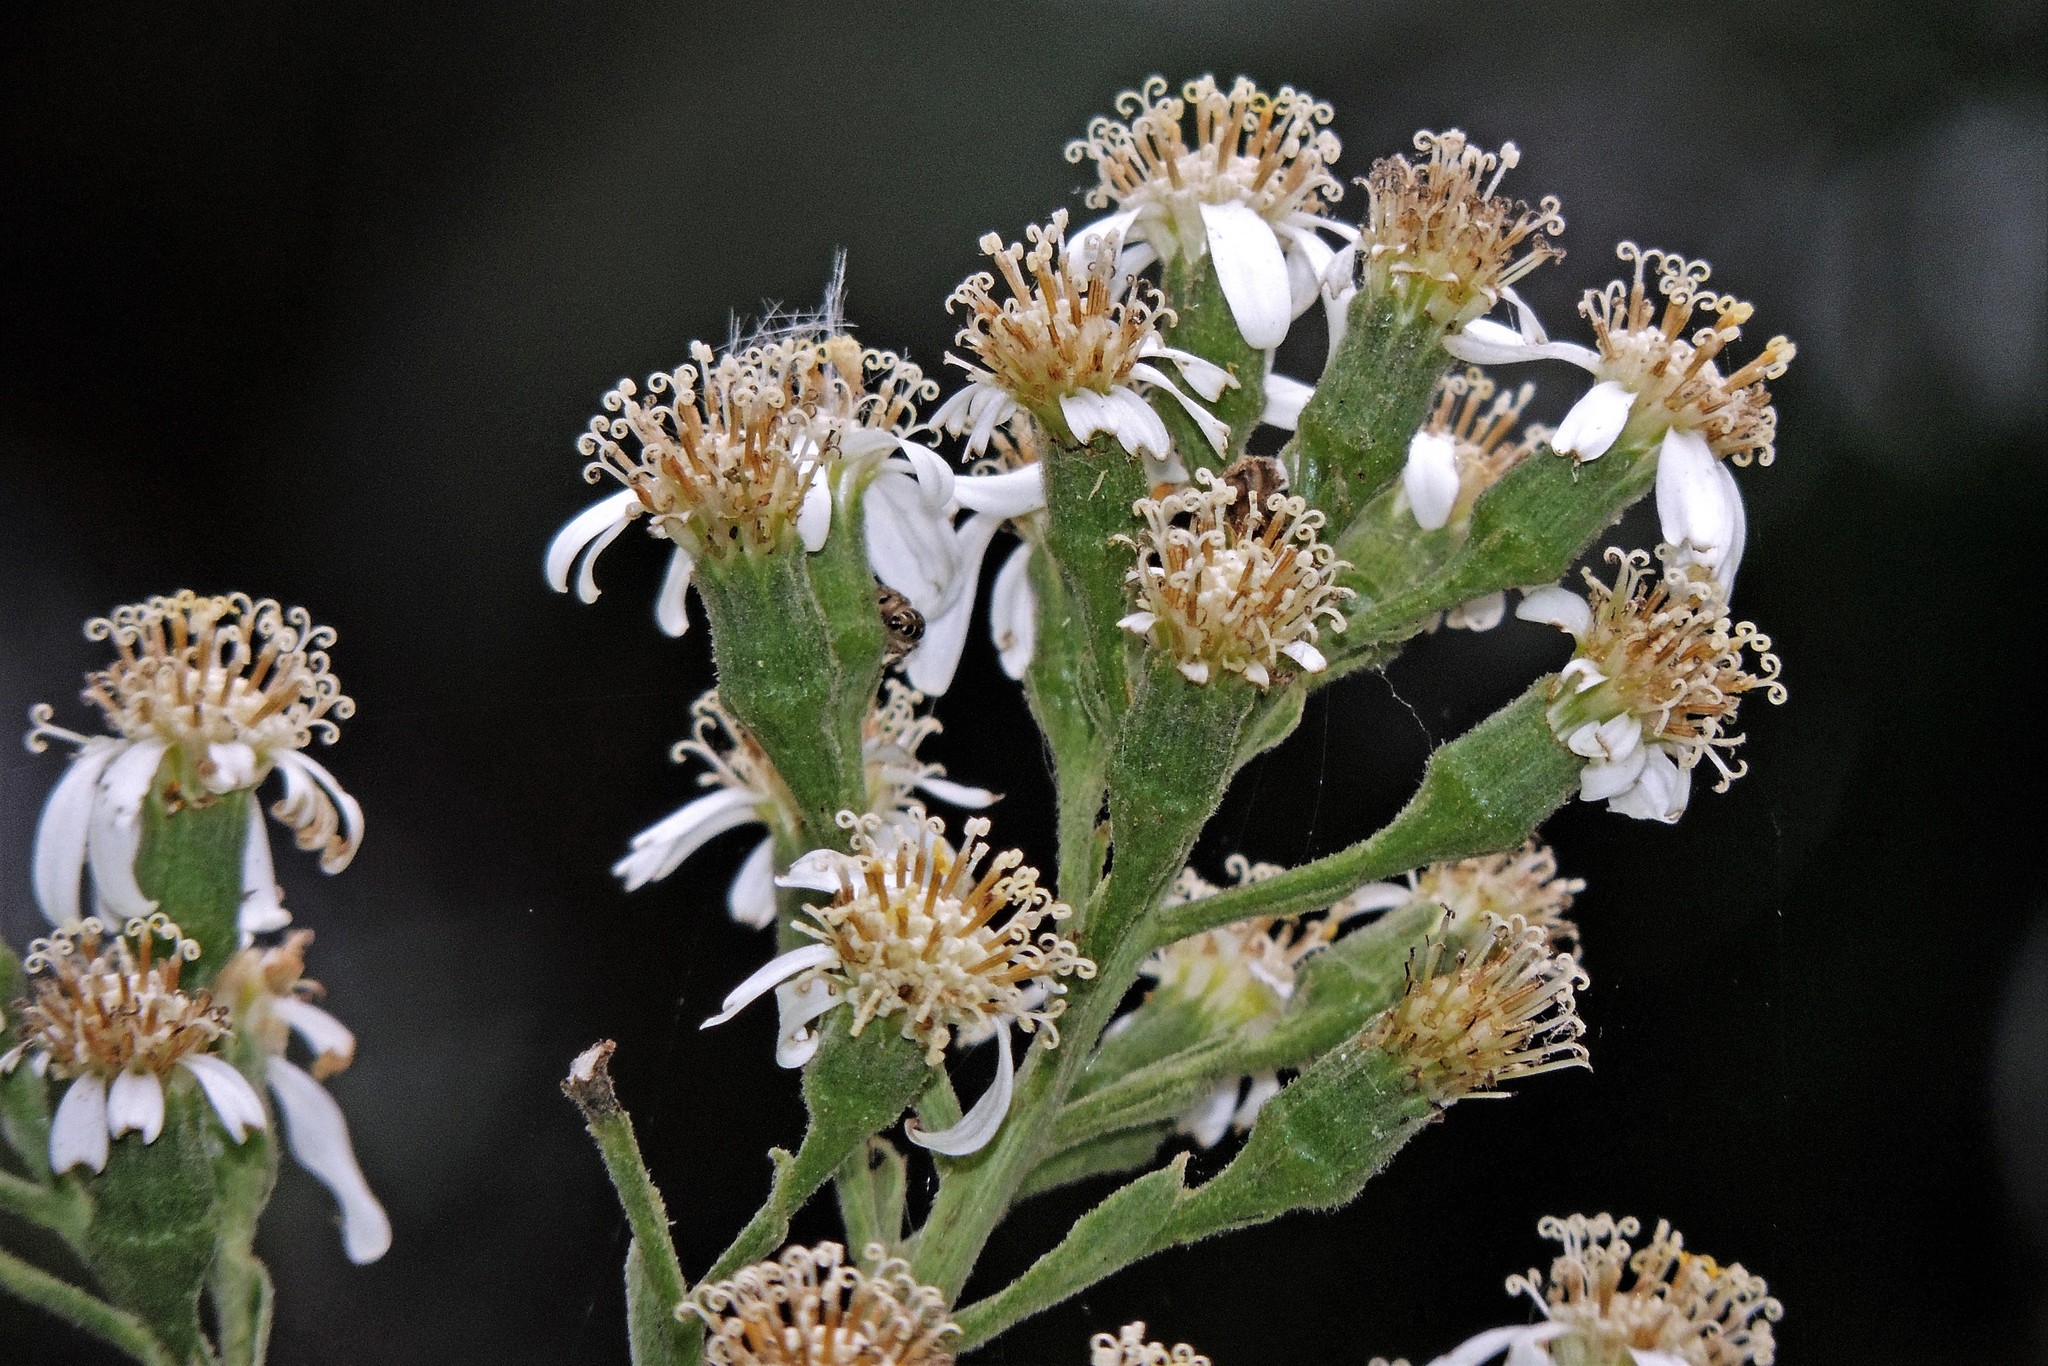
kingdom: Plantae
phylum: Tracheophyta
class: Magnoliopsida
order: Asterales
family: Asteraceae
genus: Dendrophorbium
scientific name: Dendrophorbium peregrinum
